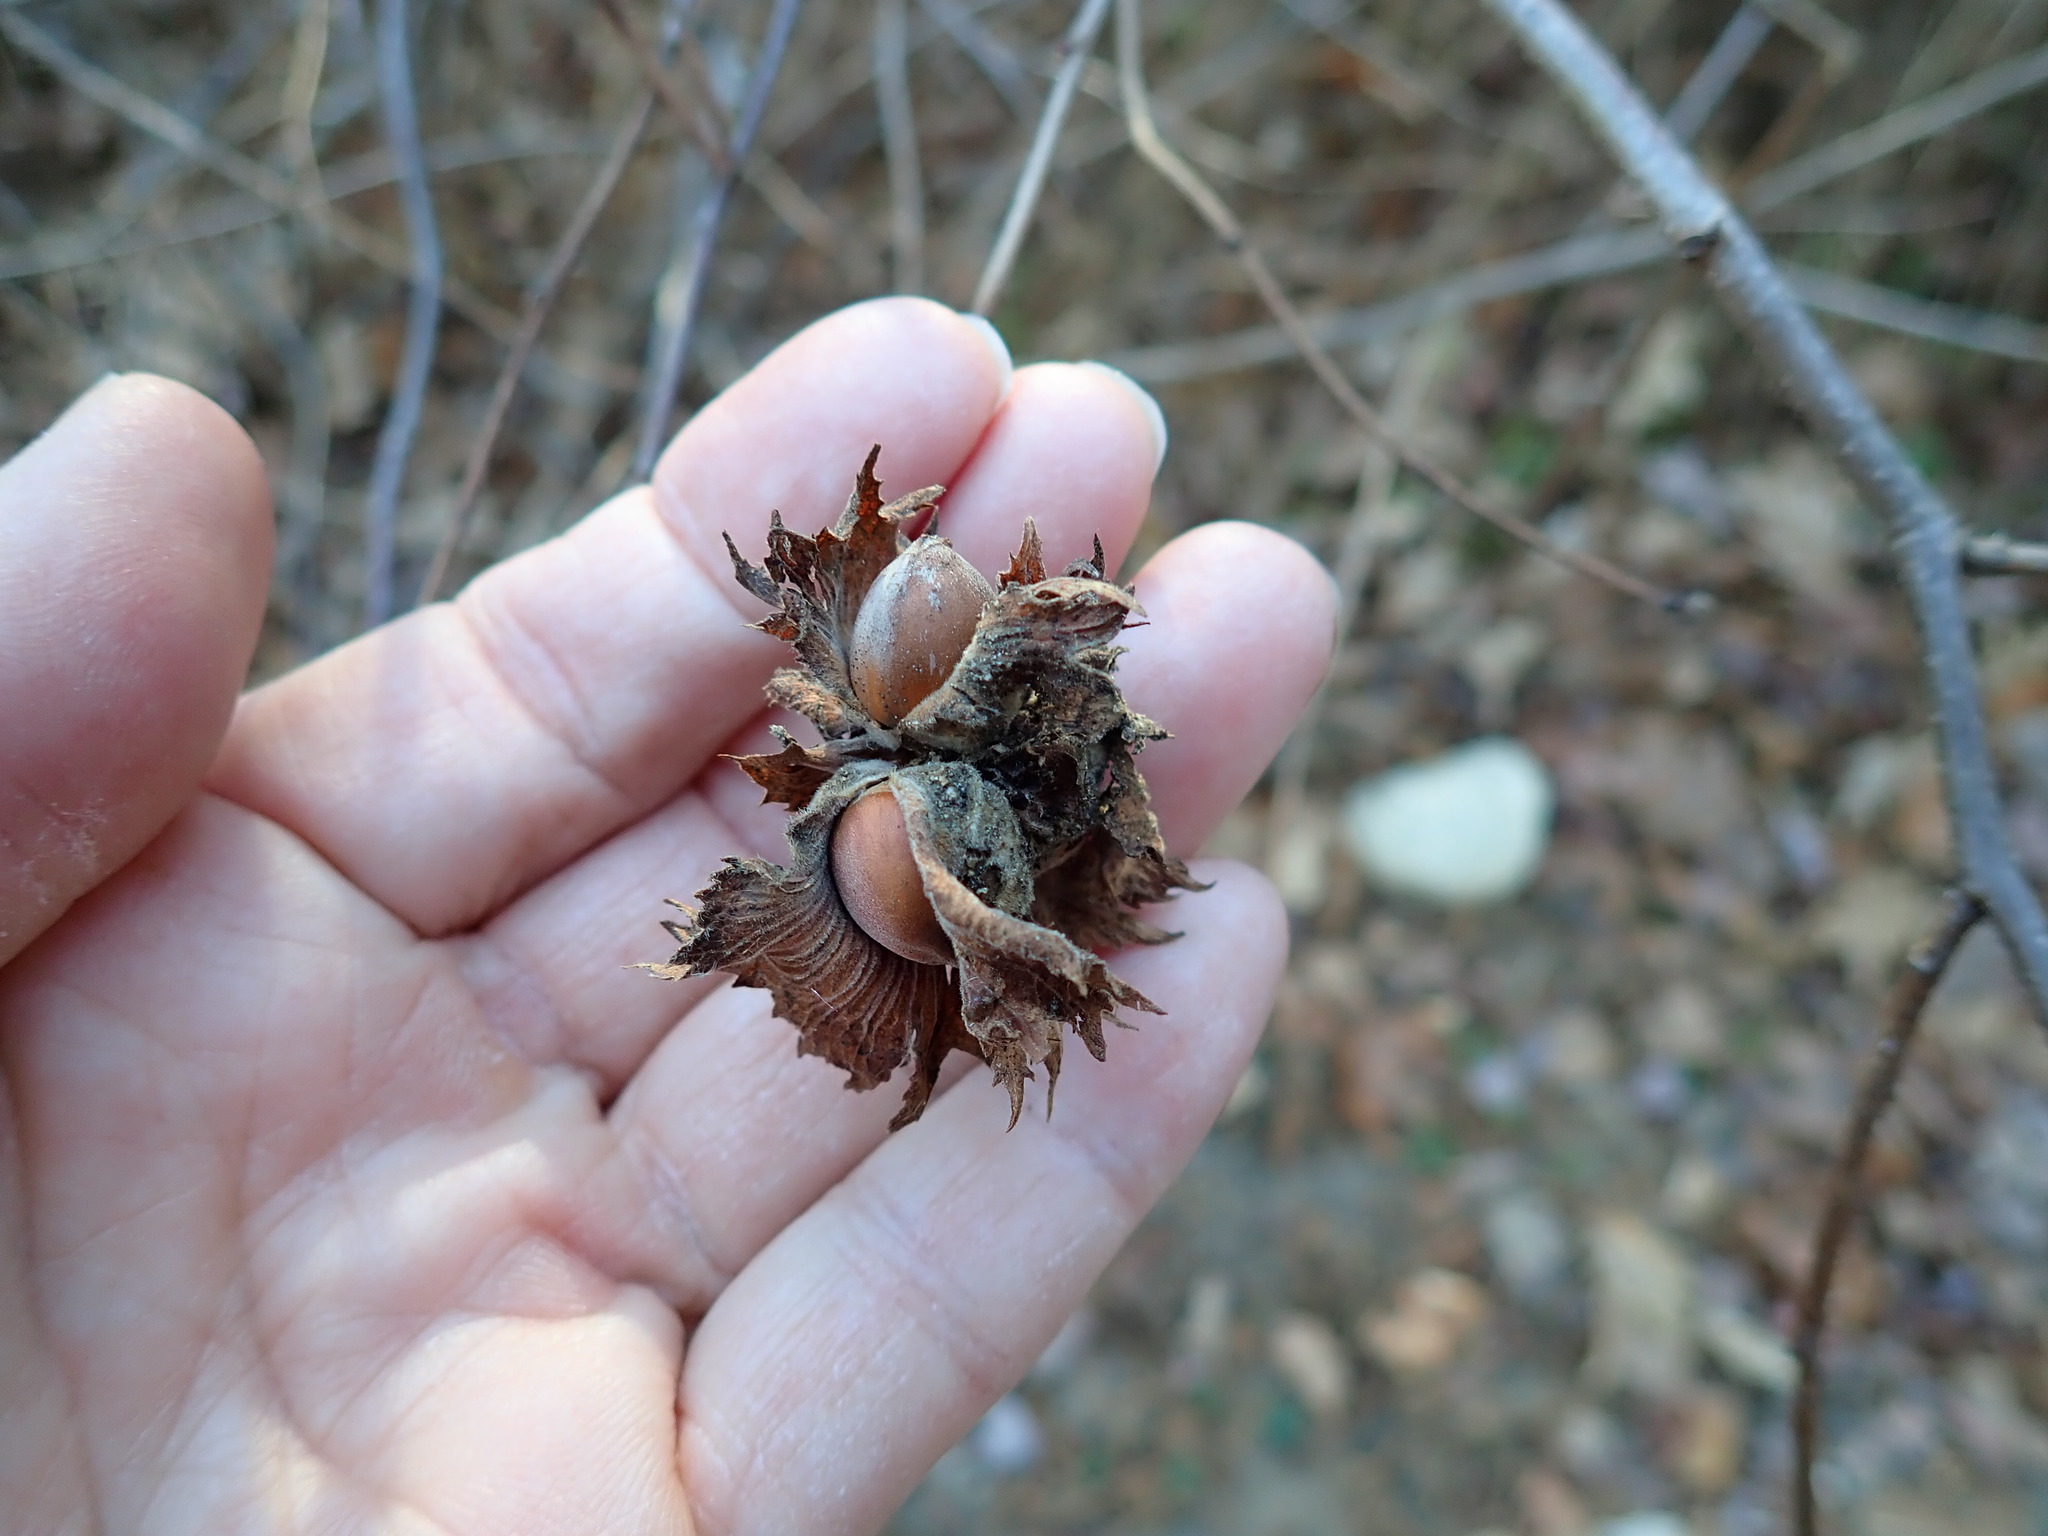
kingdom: Plantae
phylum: Tracheophyta
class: Magnoliopsida
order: Fagales
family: Betulaceae
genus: Corylus
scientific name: Corylus americana
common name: American hazel
